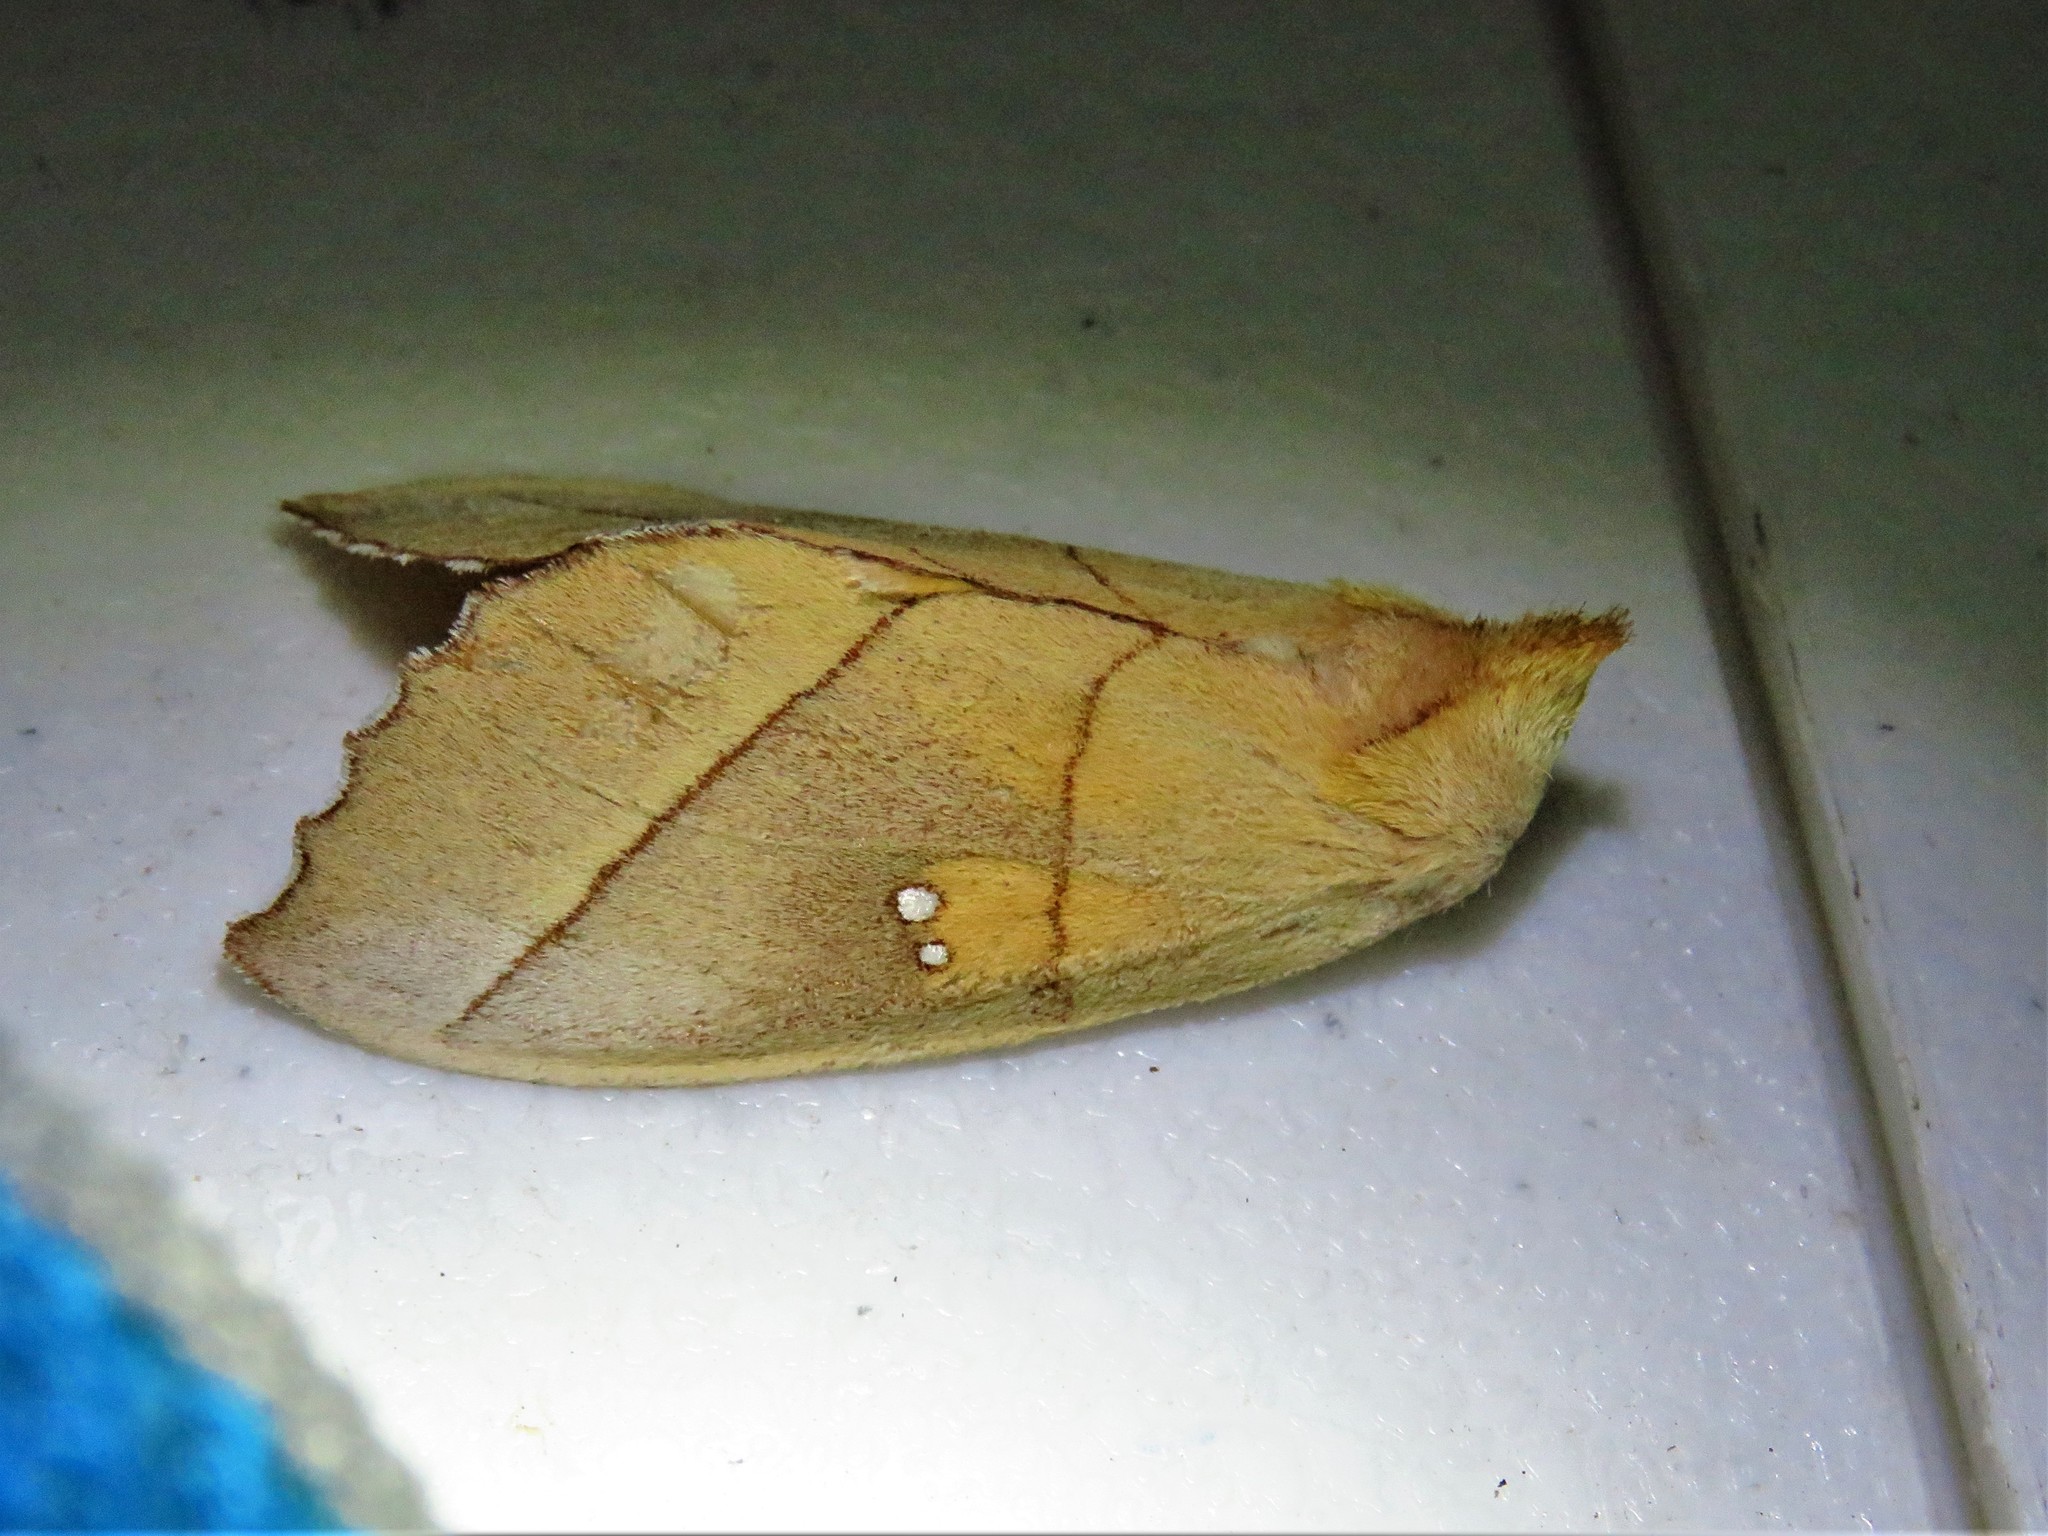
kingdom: Animalia
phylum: Arthropoda
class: Insecta
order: Lepidoptera
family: Notodontidae
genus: Nadata
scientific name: Nadata gibbosa
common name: White-dotted prominent
